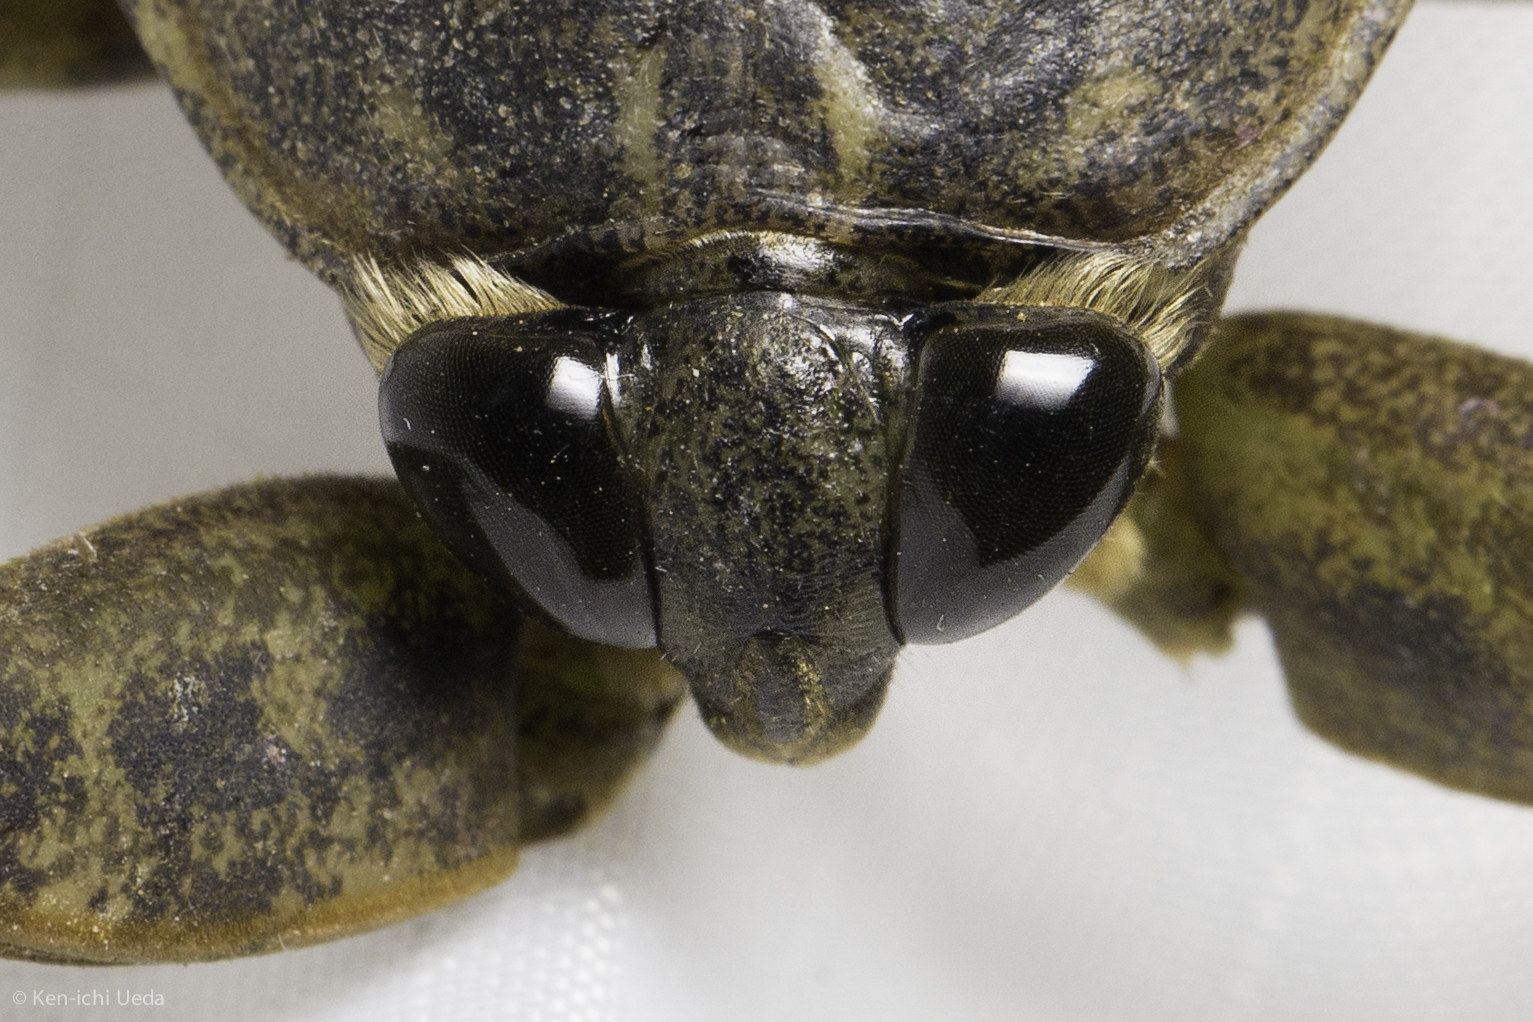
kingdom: Animalia
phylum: Arthropoda
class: Insecta
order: Hemiptera
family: Belostomatidae
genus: Lethocerus
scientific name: Lethocerus americanus
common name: Giant water bug
